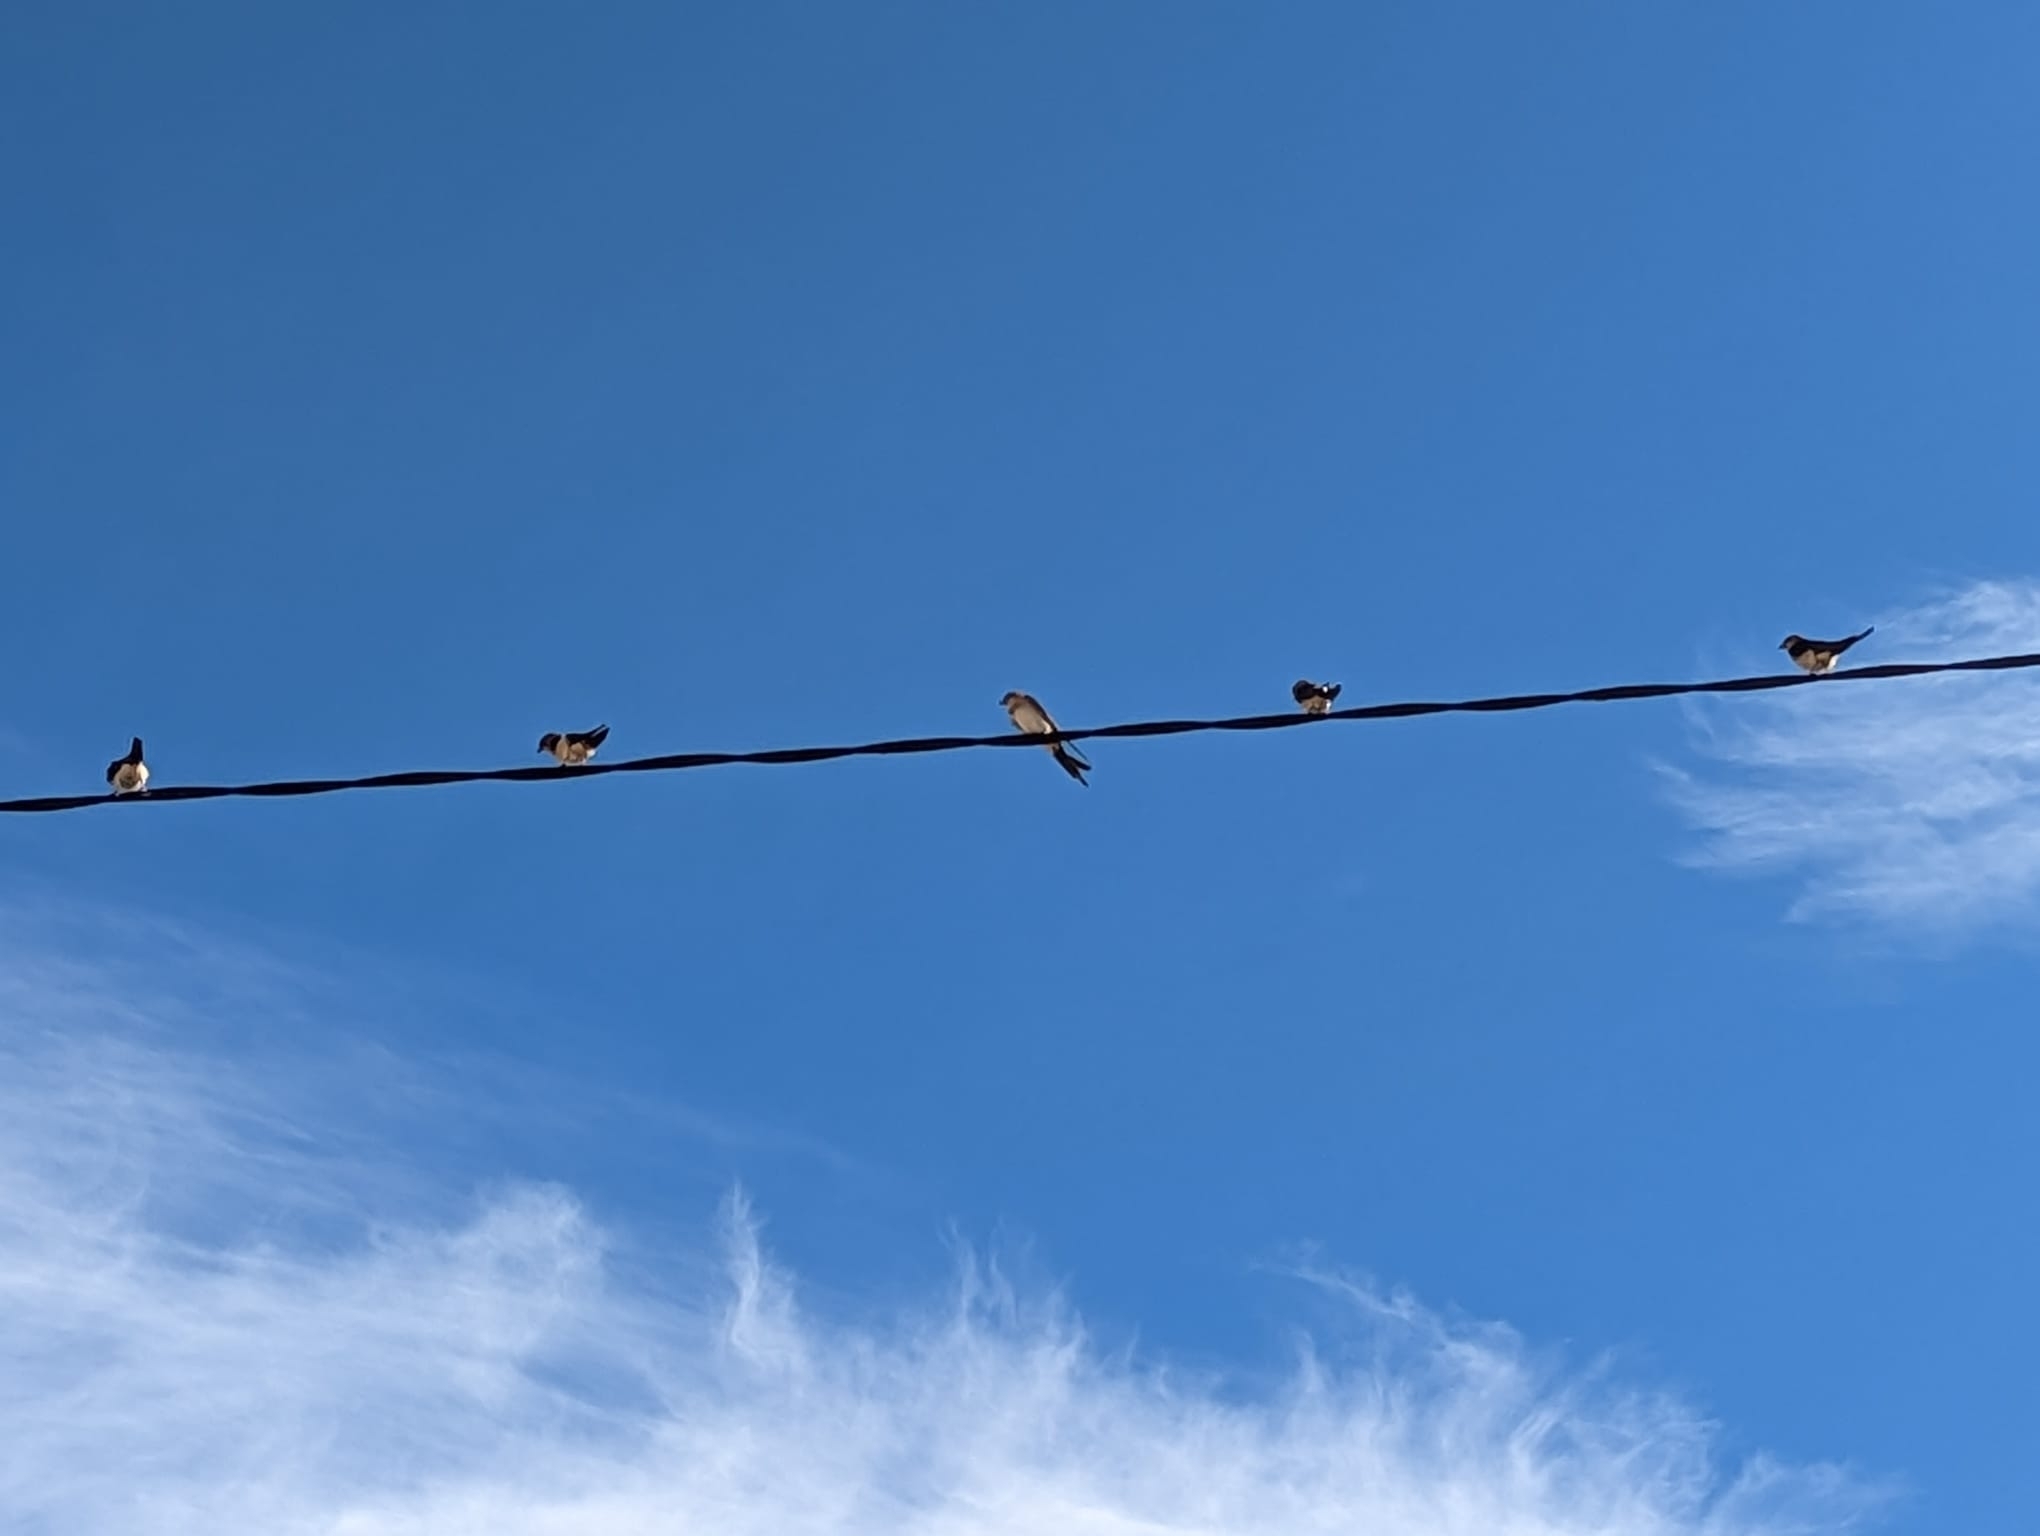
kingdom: Animalia
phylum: Chordata
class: Aves
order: Passeriformes
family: Hirundinidae
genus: Hirundo
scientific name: Hirundo rustica
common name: Barn swallow
